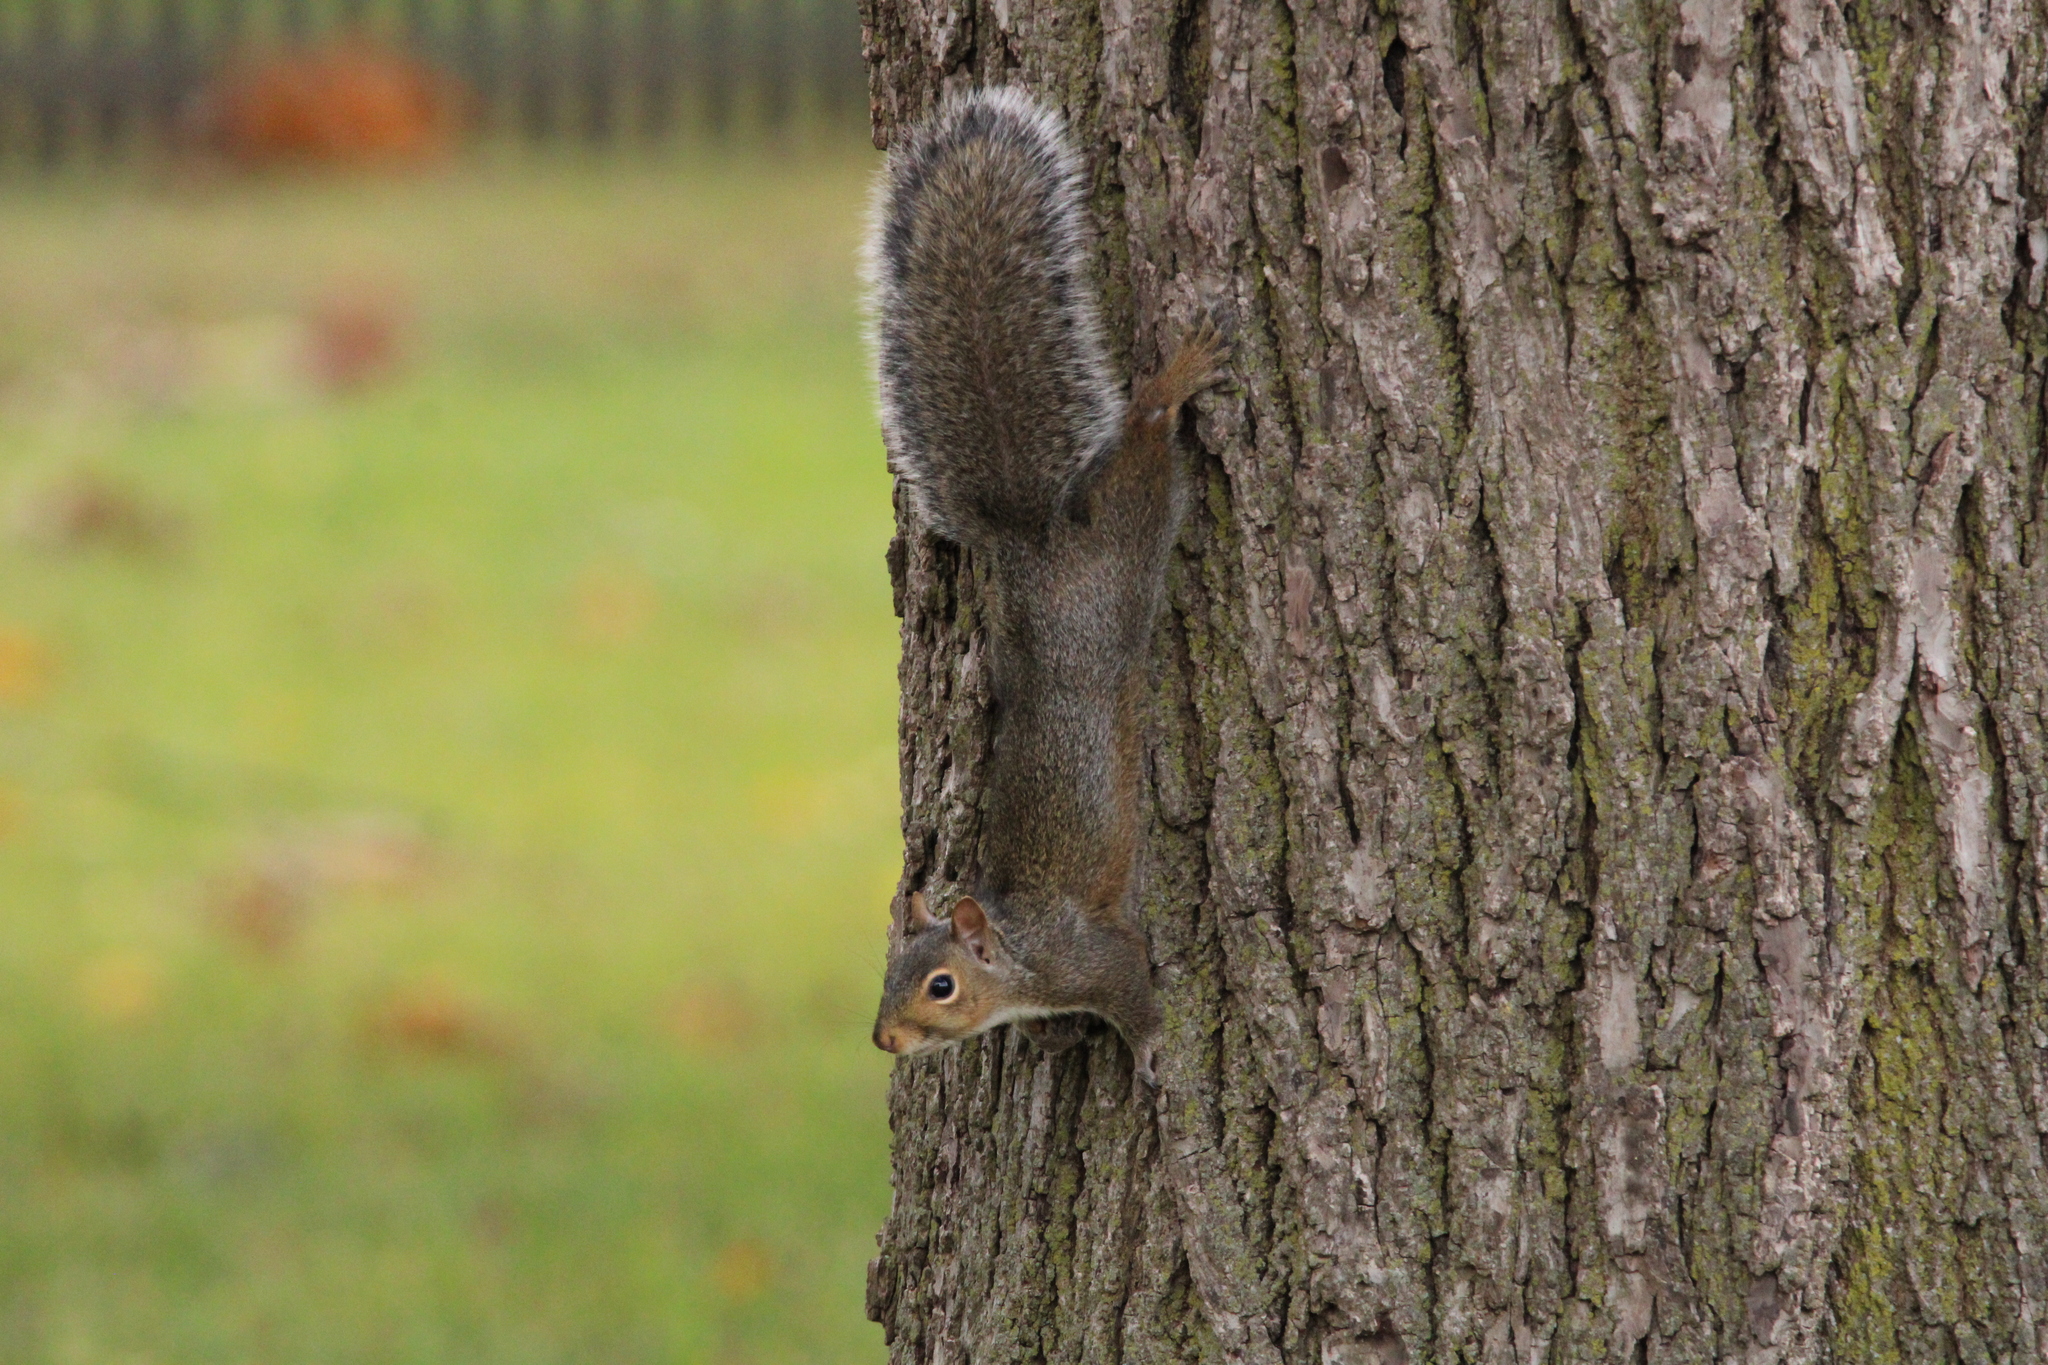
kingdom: Animalia
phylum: Chordata
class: Mammalia
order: Rodentia
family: Sciuridae
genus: Sciurus
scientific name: Sciurus carolinensis
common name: Eastern gray squirrel
